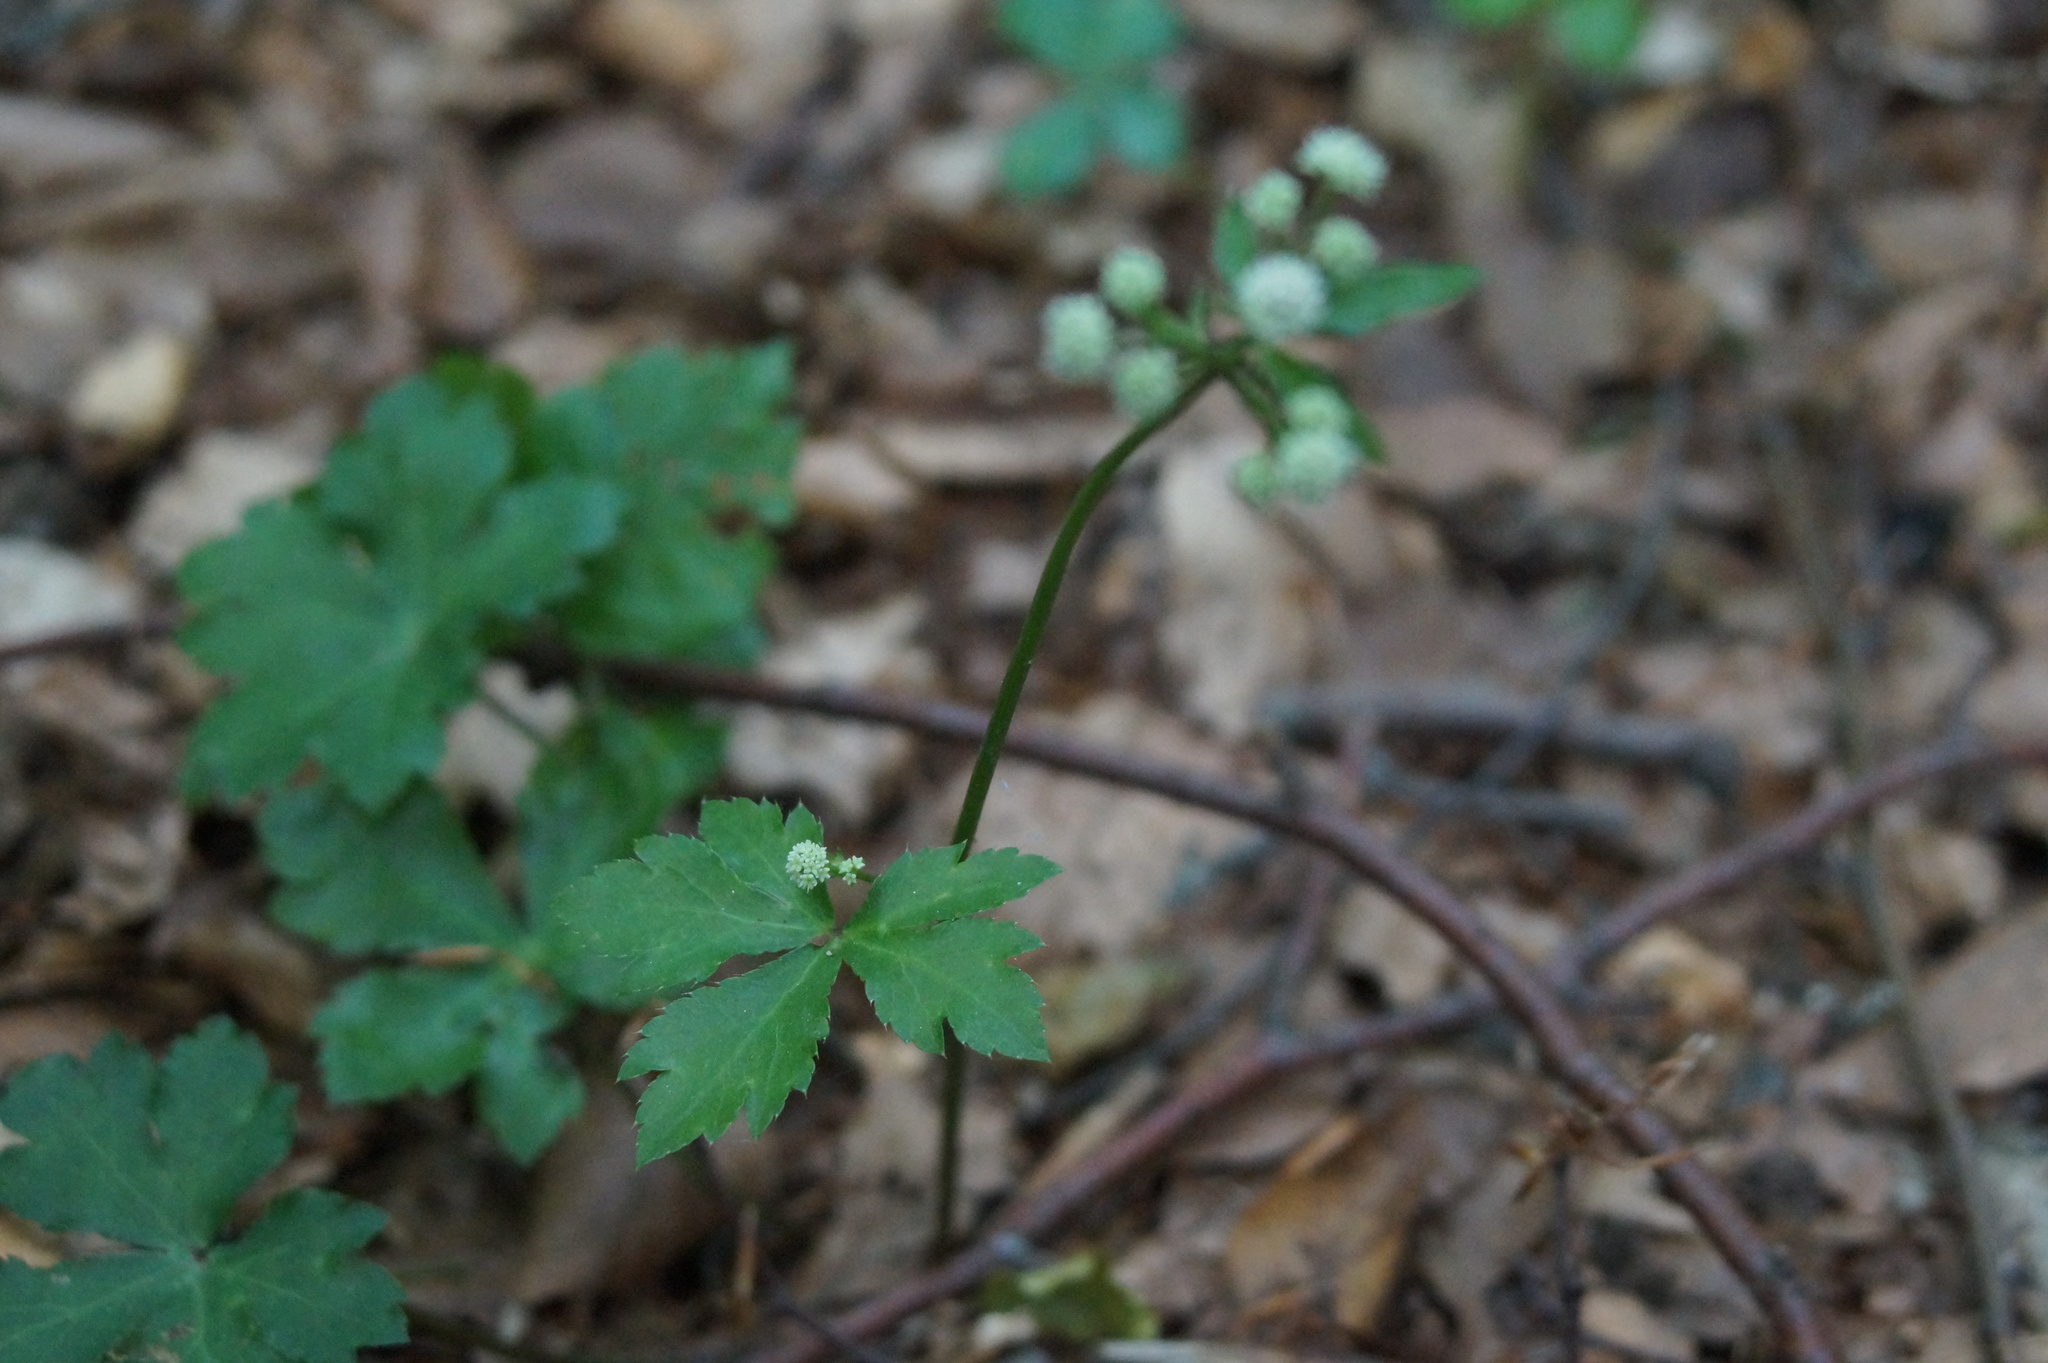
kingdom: Plantae
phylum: Tracheophyta
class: Magnoliopsida
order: Apiales
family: Apiaceae
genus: Sanicula
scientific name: Sanicula europaea
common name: Sanicle
